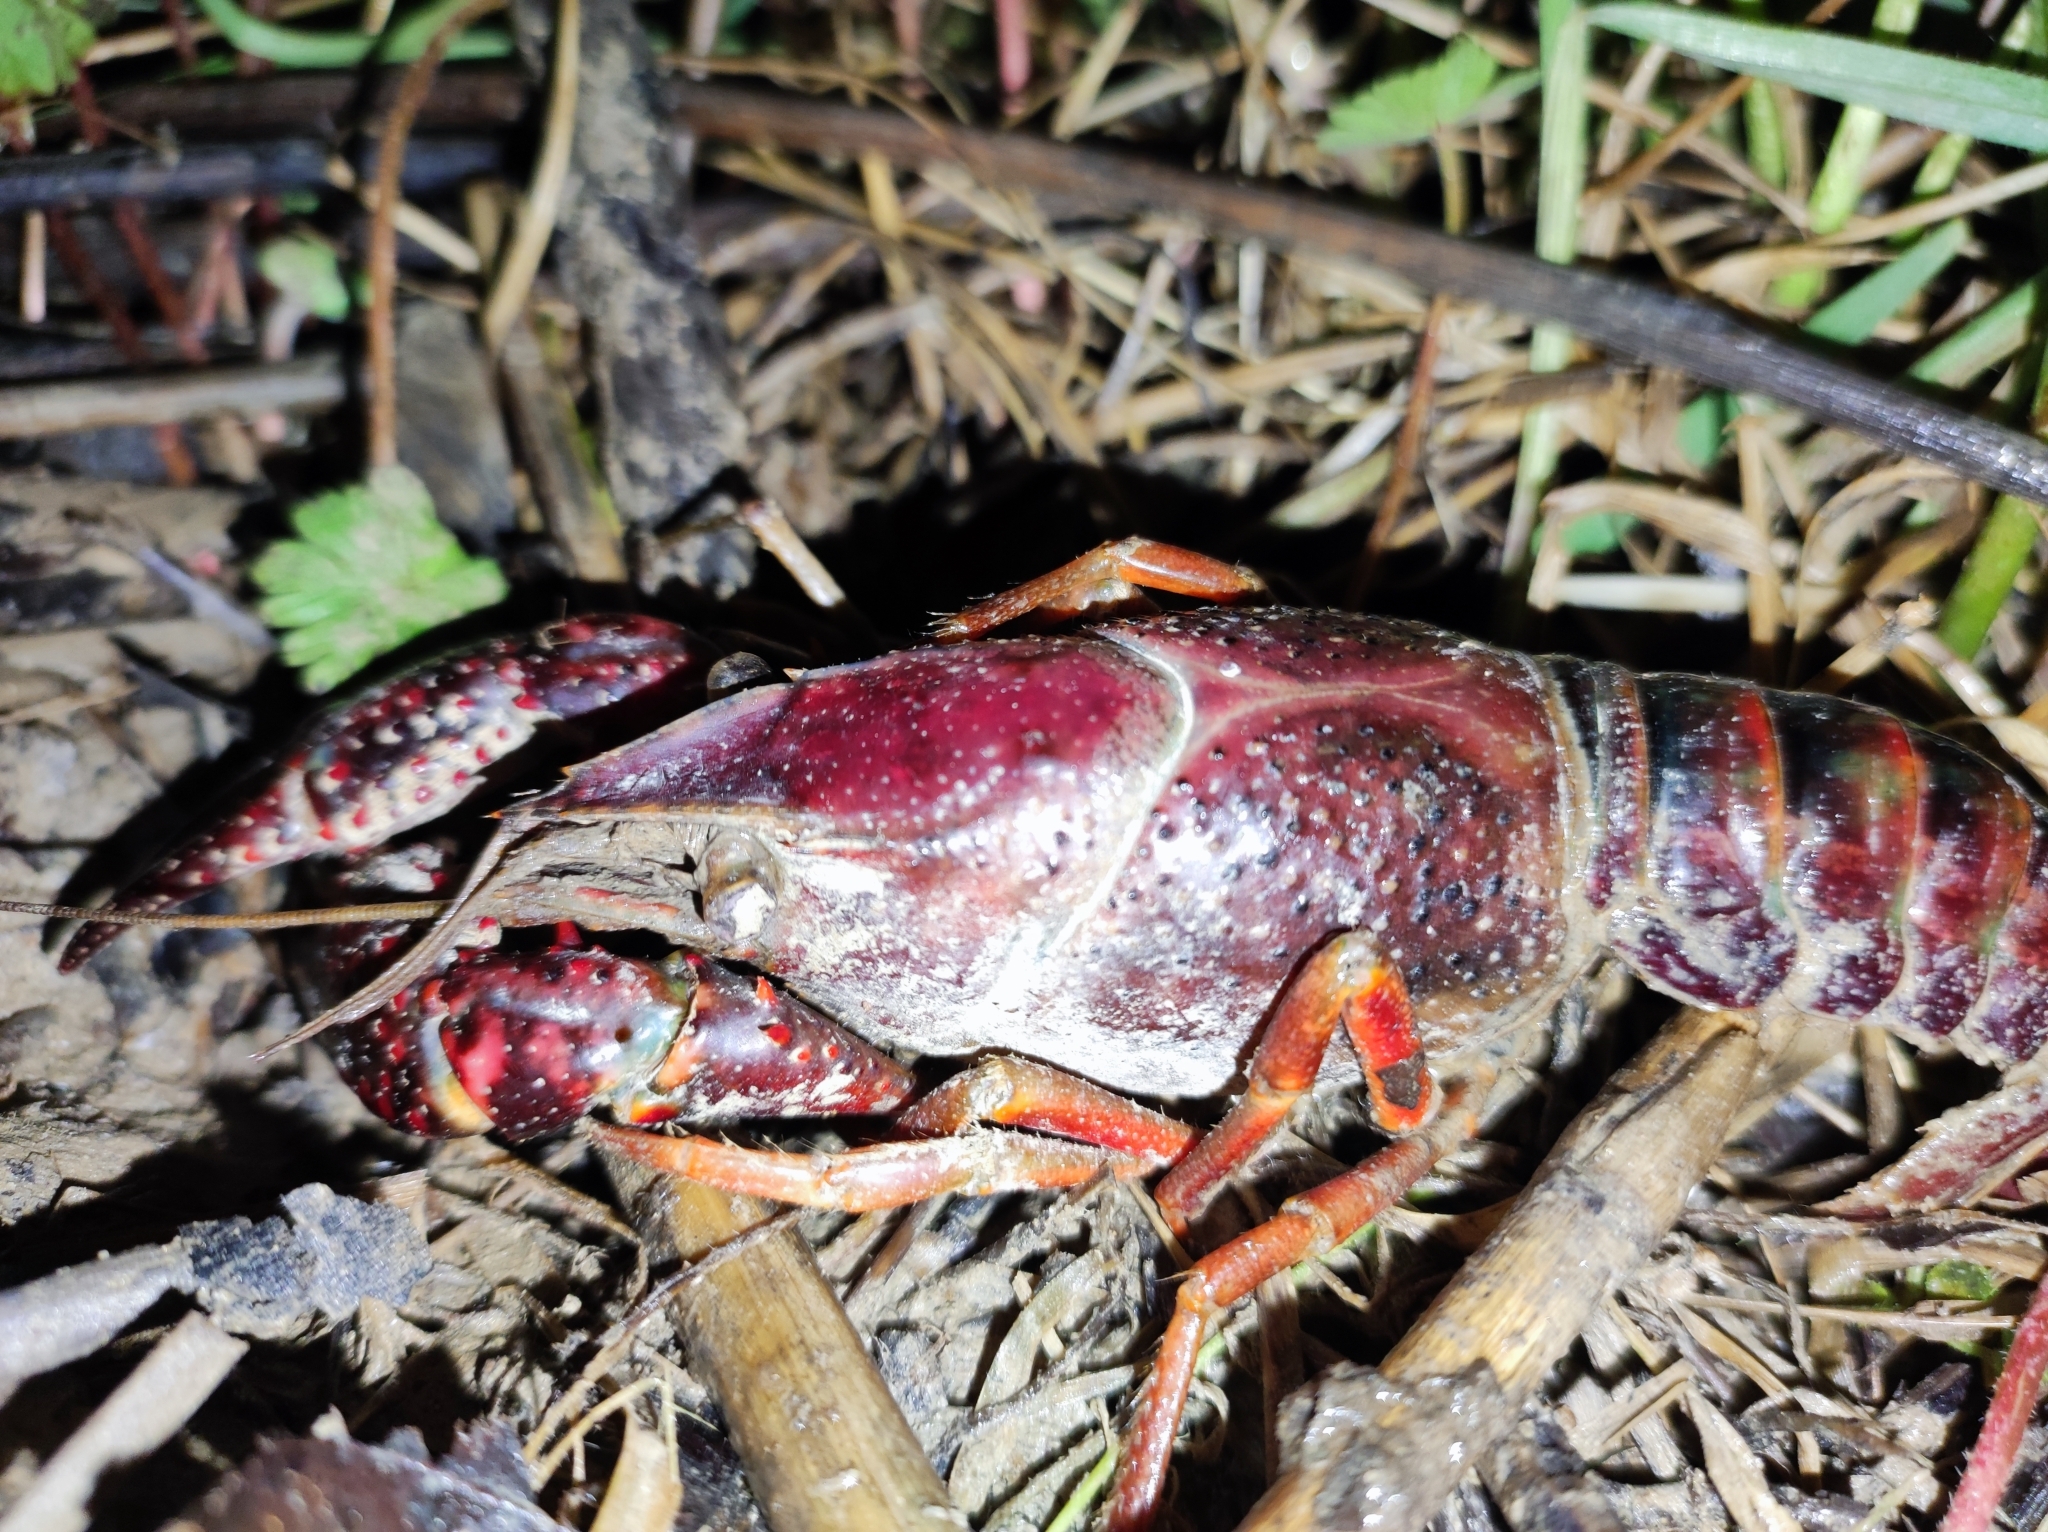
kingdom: Animalia
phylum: Arthropoda
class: Malacostraca
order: Decapoda
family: Cambaridae
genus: Procambarus
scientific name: Procambarus clarkii
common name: Red swamp crayfish
